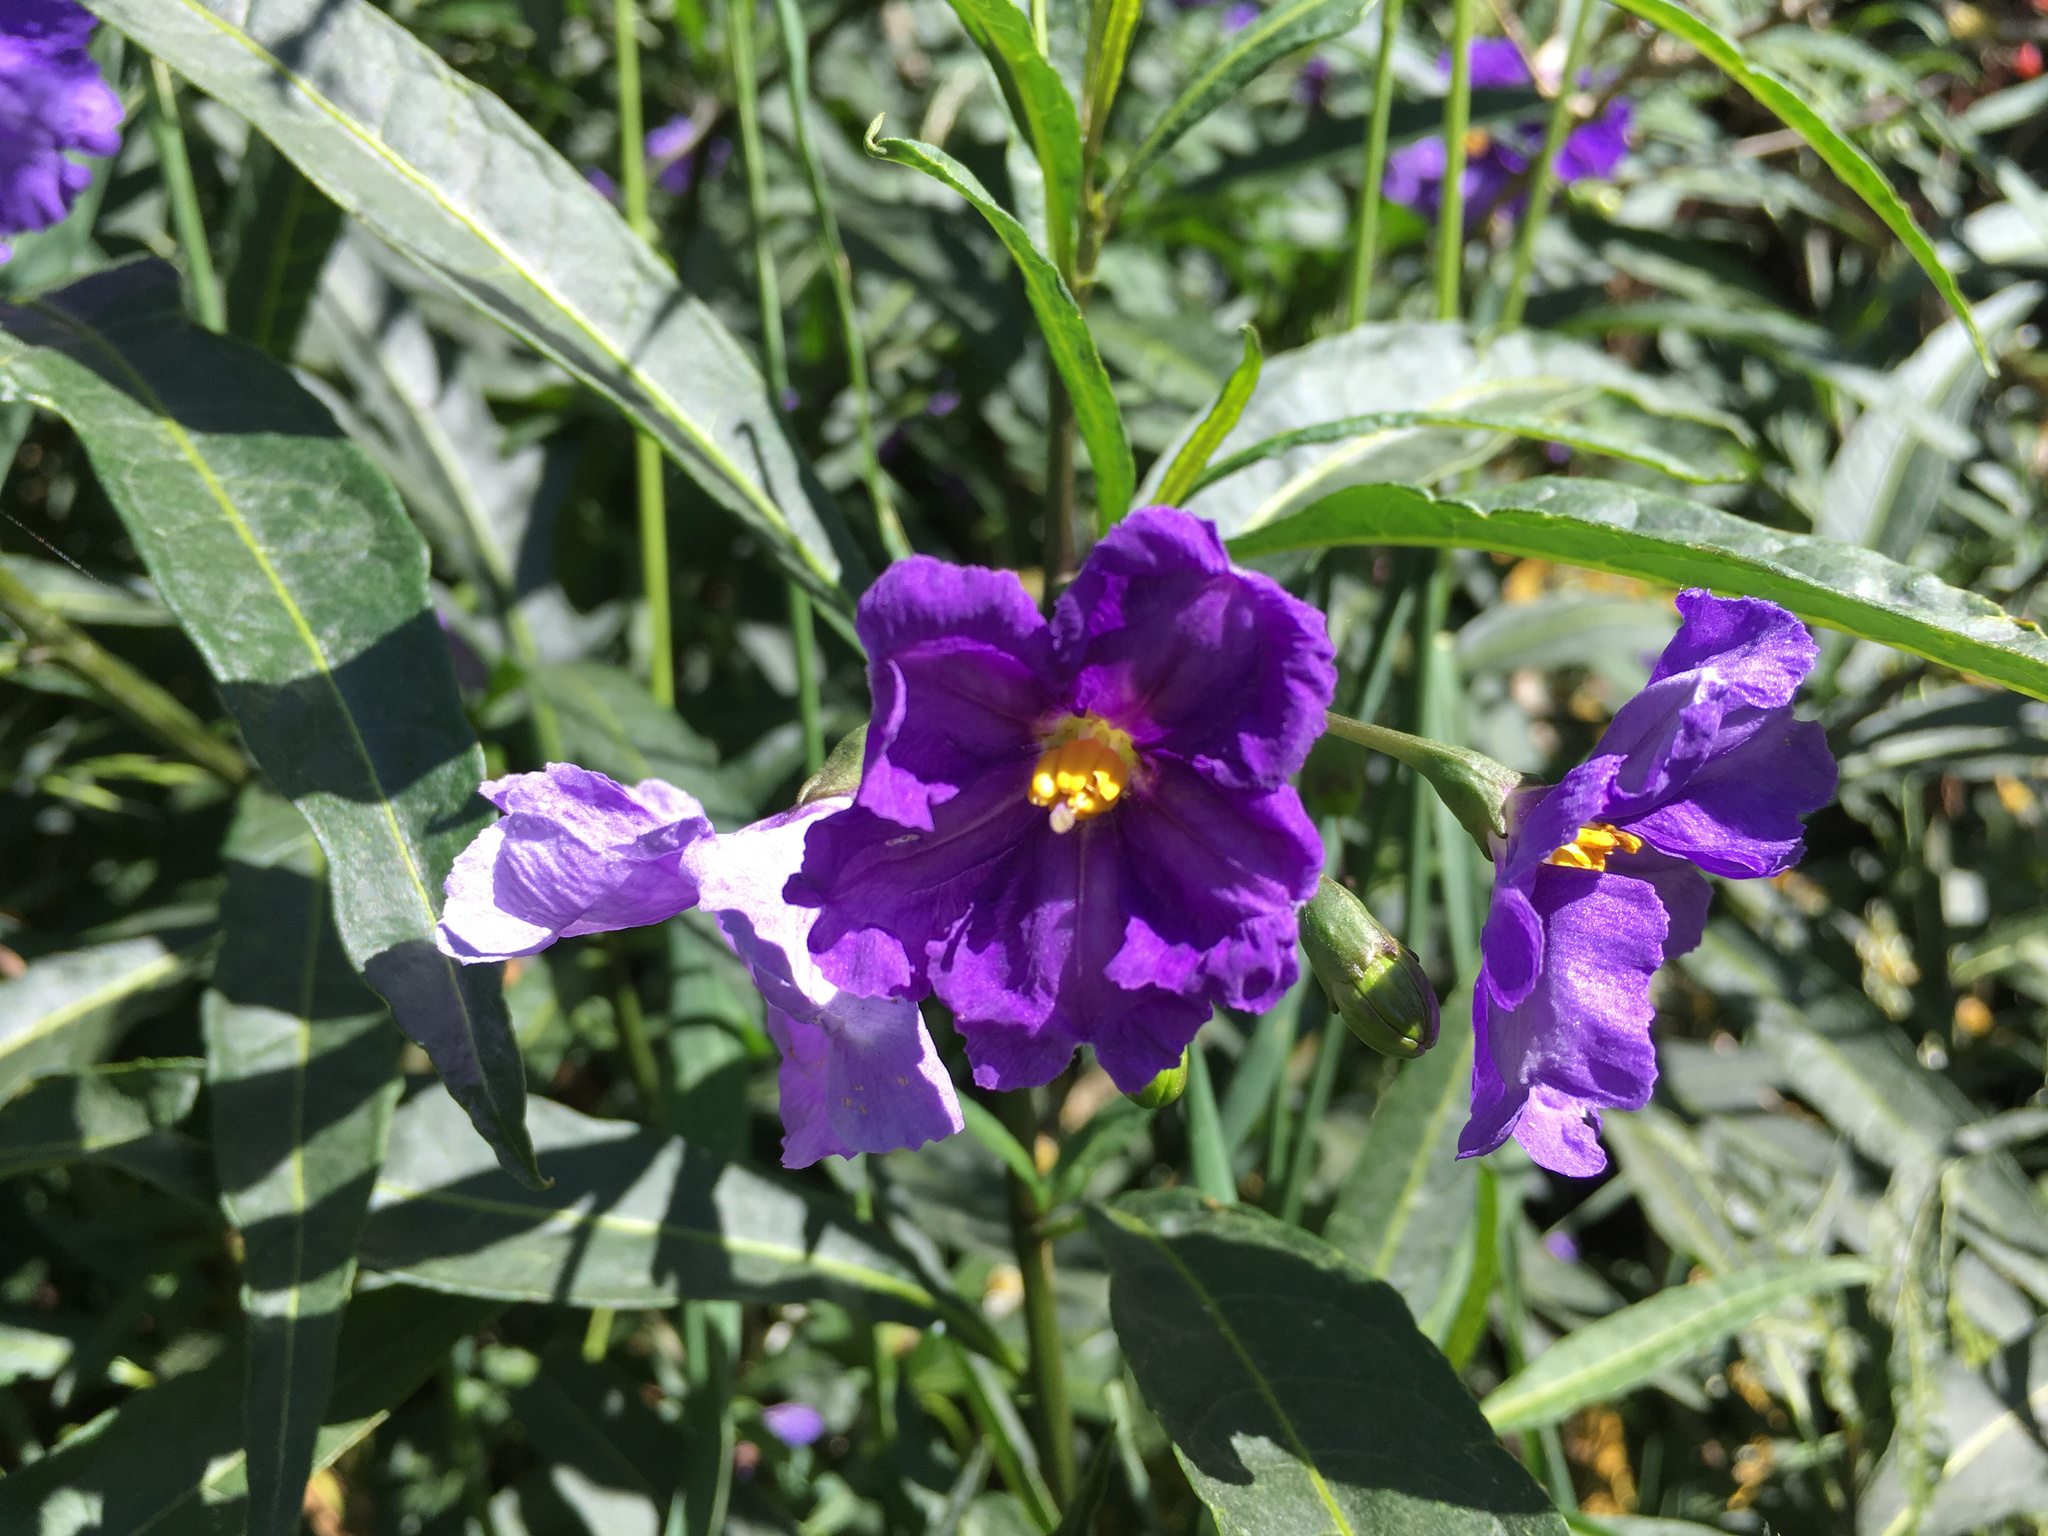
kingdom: Plantae
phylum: Tracheophyta
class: Magnoliopsida
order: Solanales
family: Solanaceae
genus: Solanum
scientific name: Solanum laciniatum
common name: Kangaroo-apple
